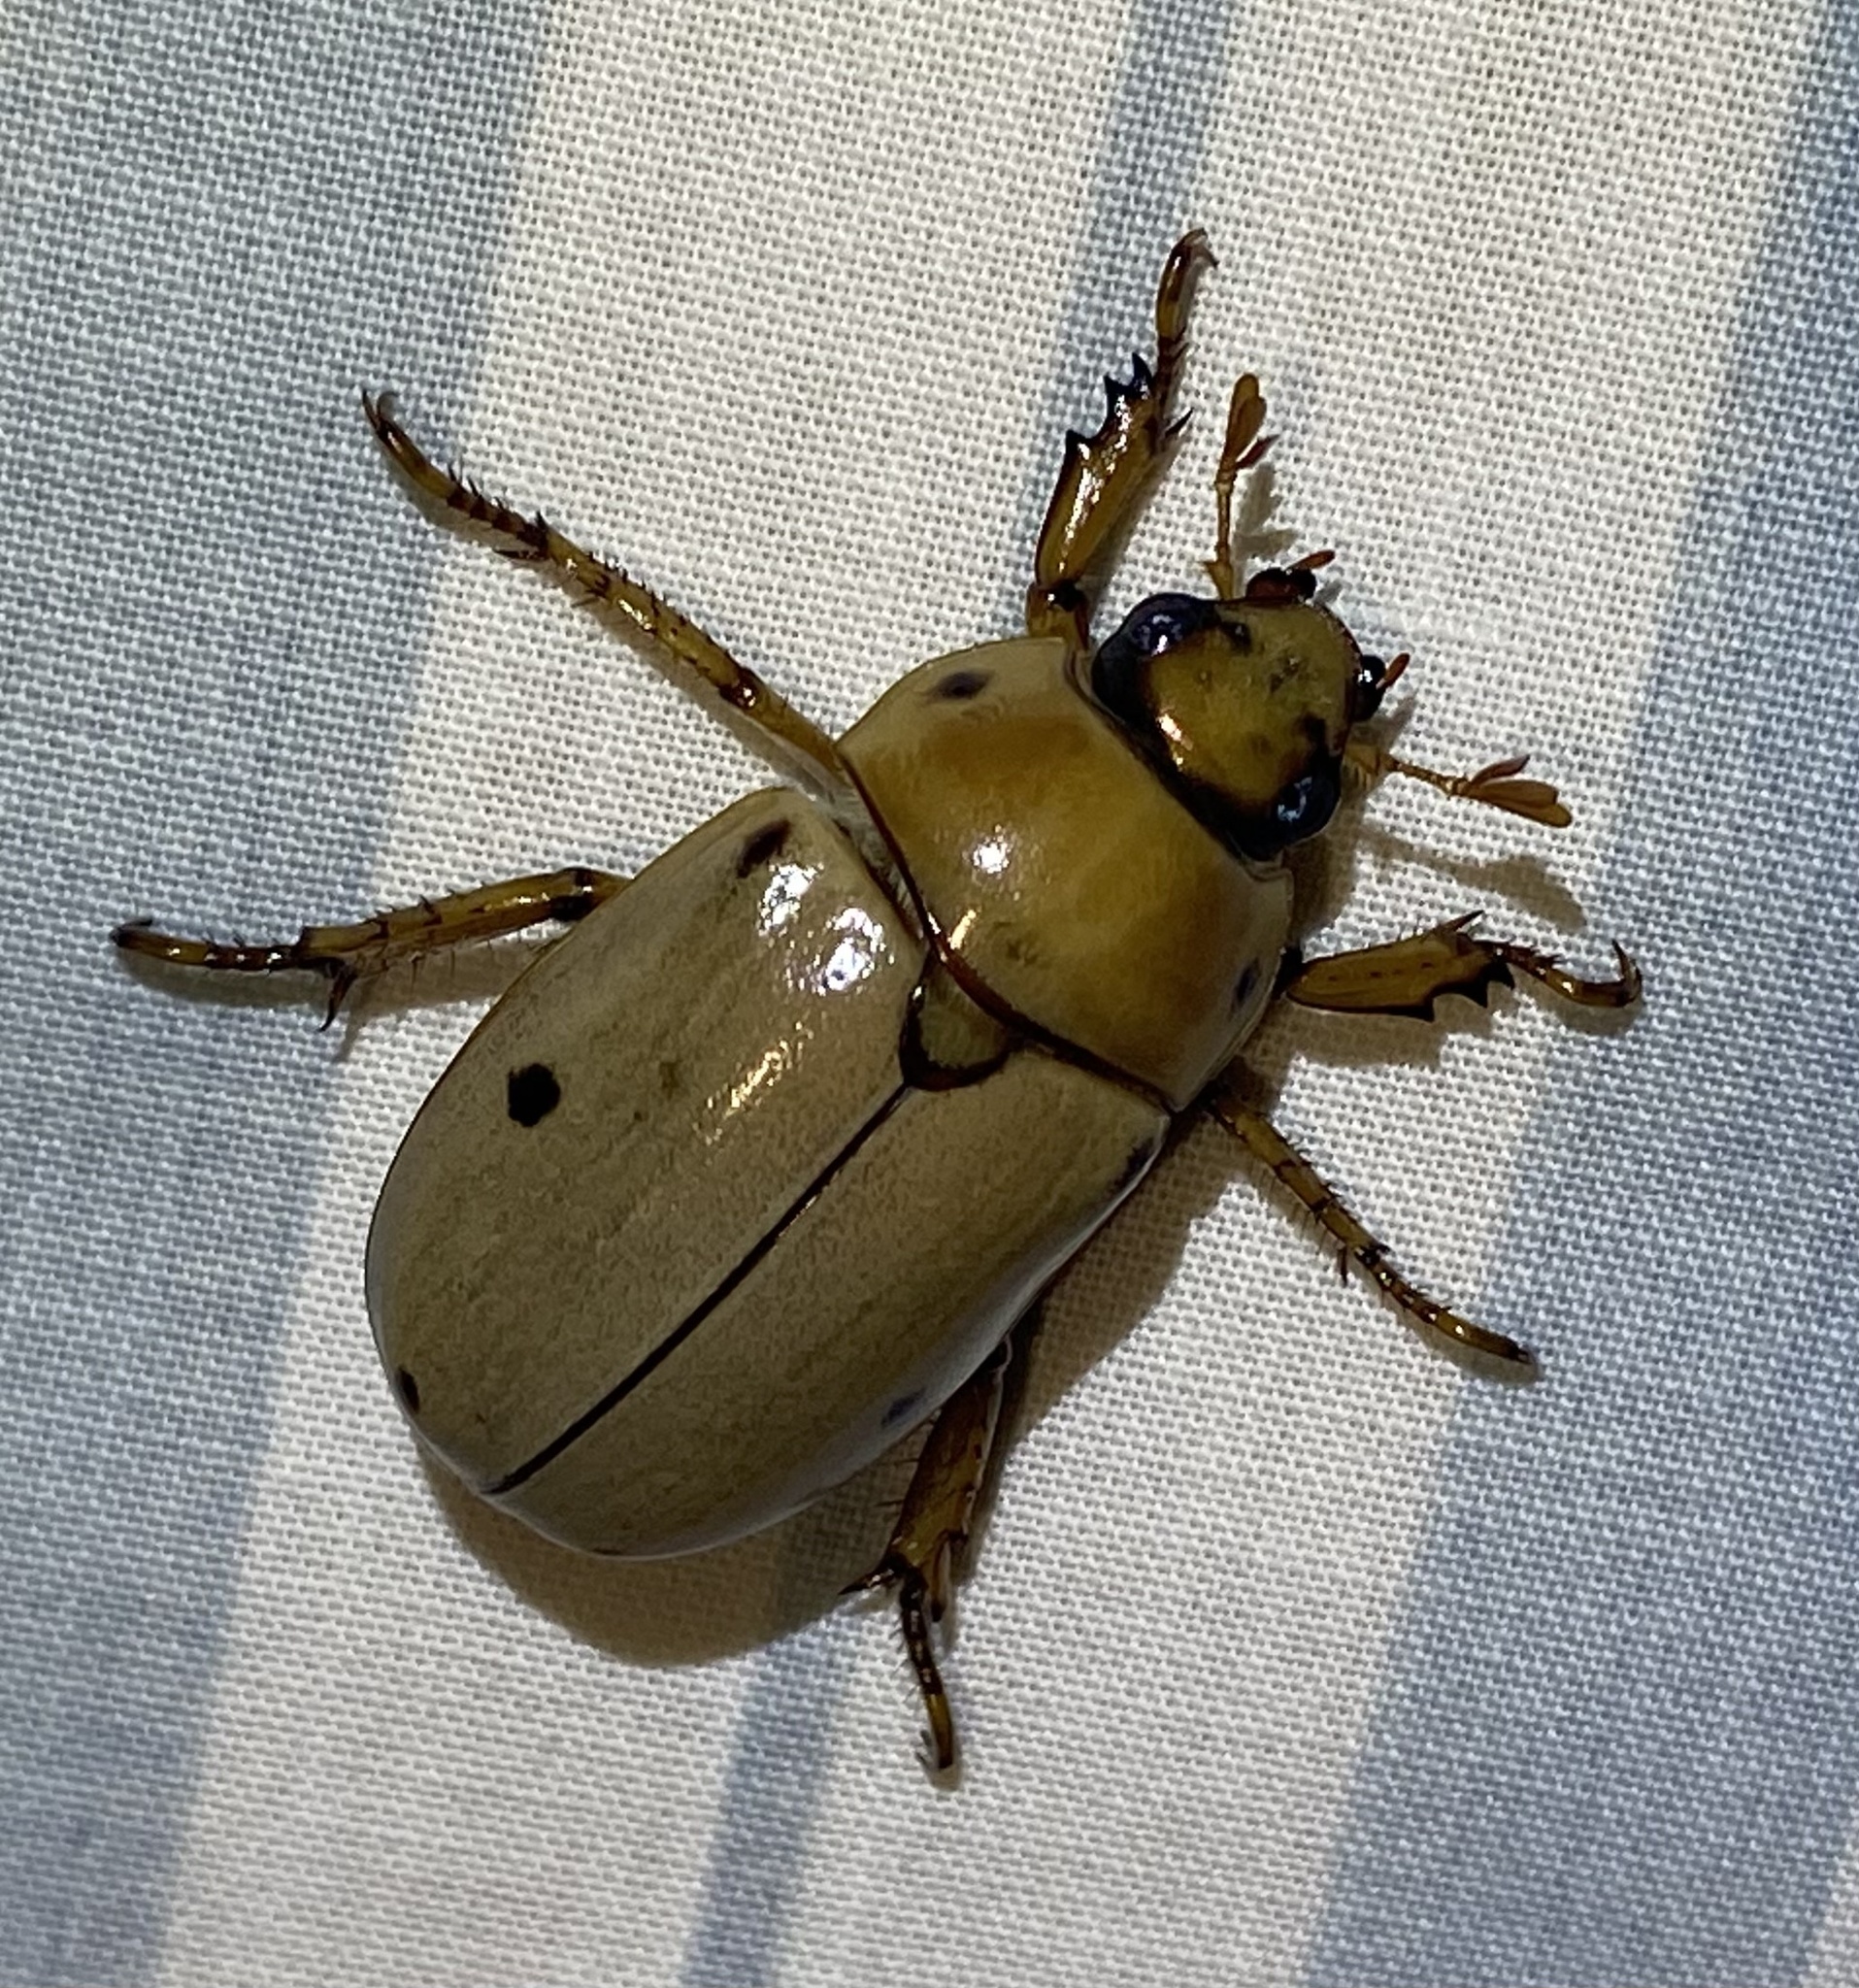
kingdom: Animalia
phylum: Arthropoda
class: Insecta
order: Coleoptera
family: Scarabaeidae
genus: Pelidnota
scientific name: Pelidnota punctata
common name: Grapevine beetle
